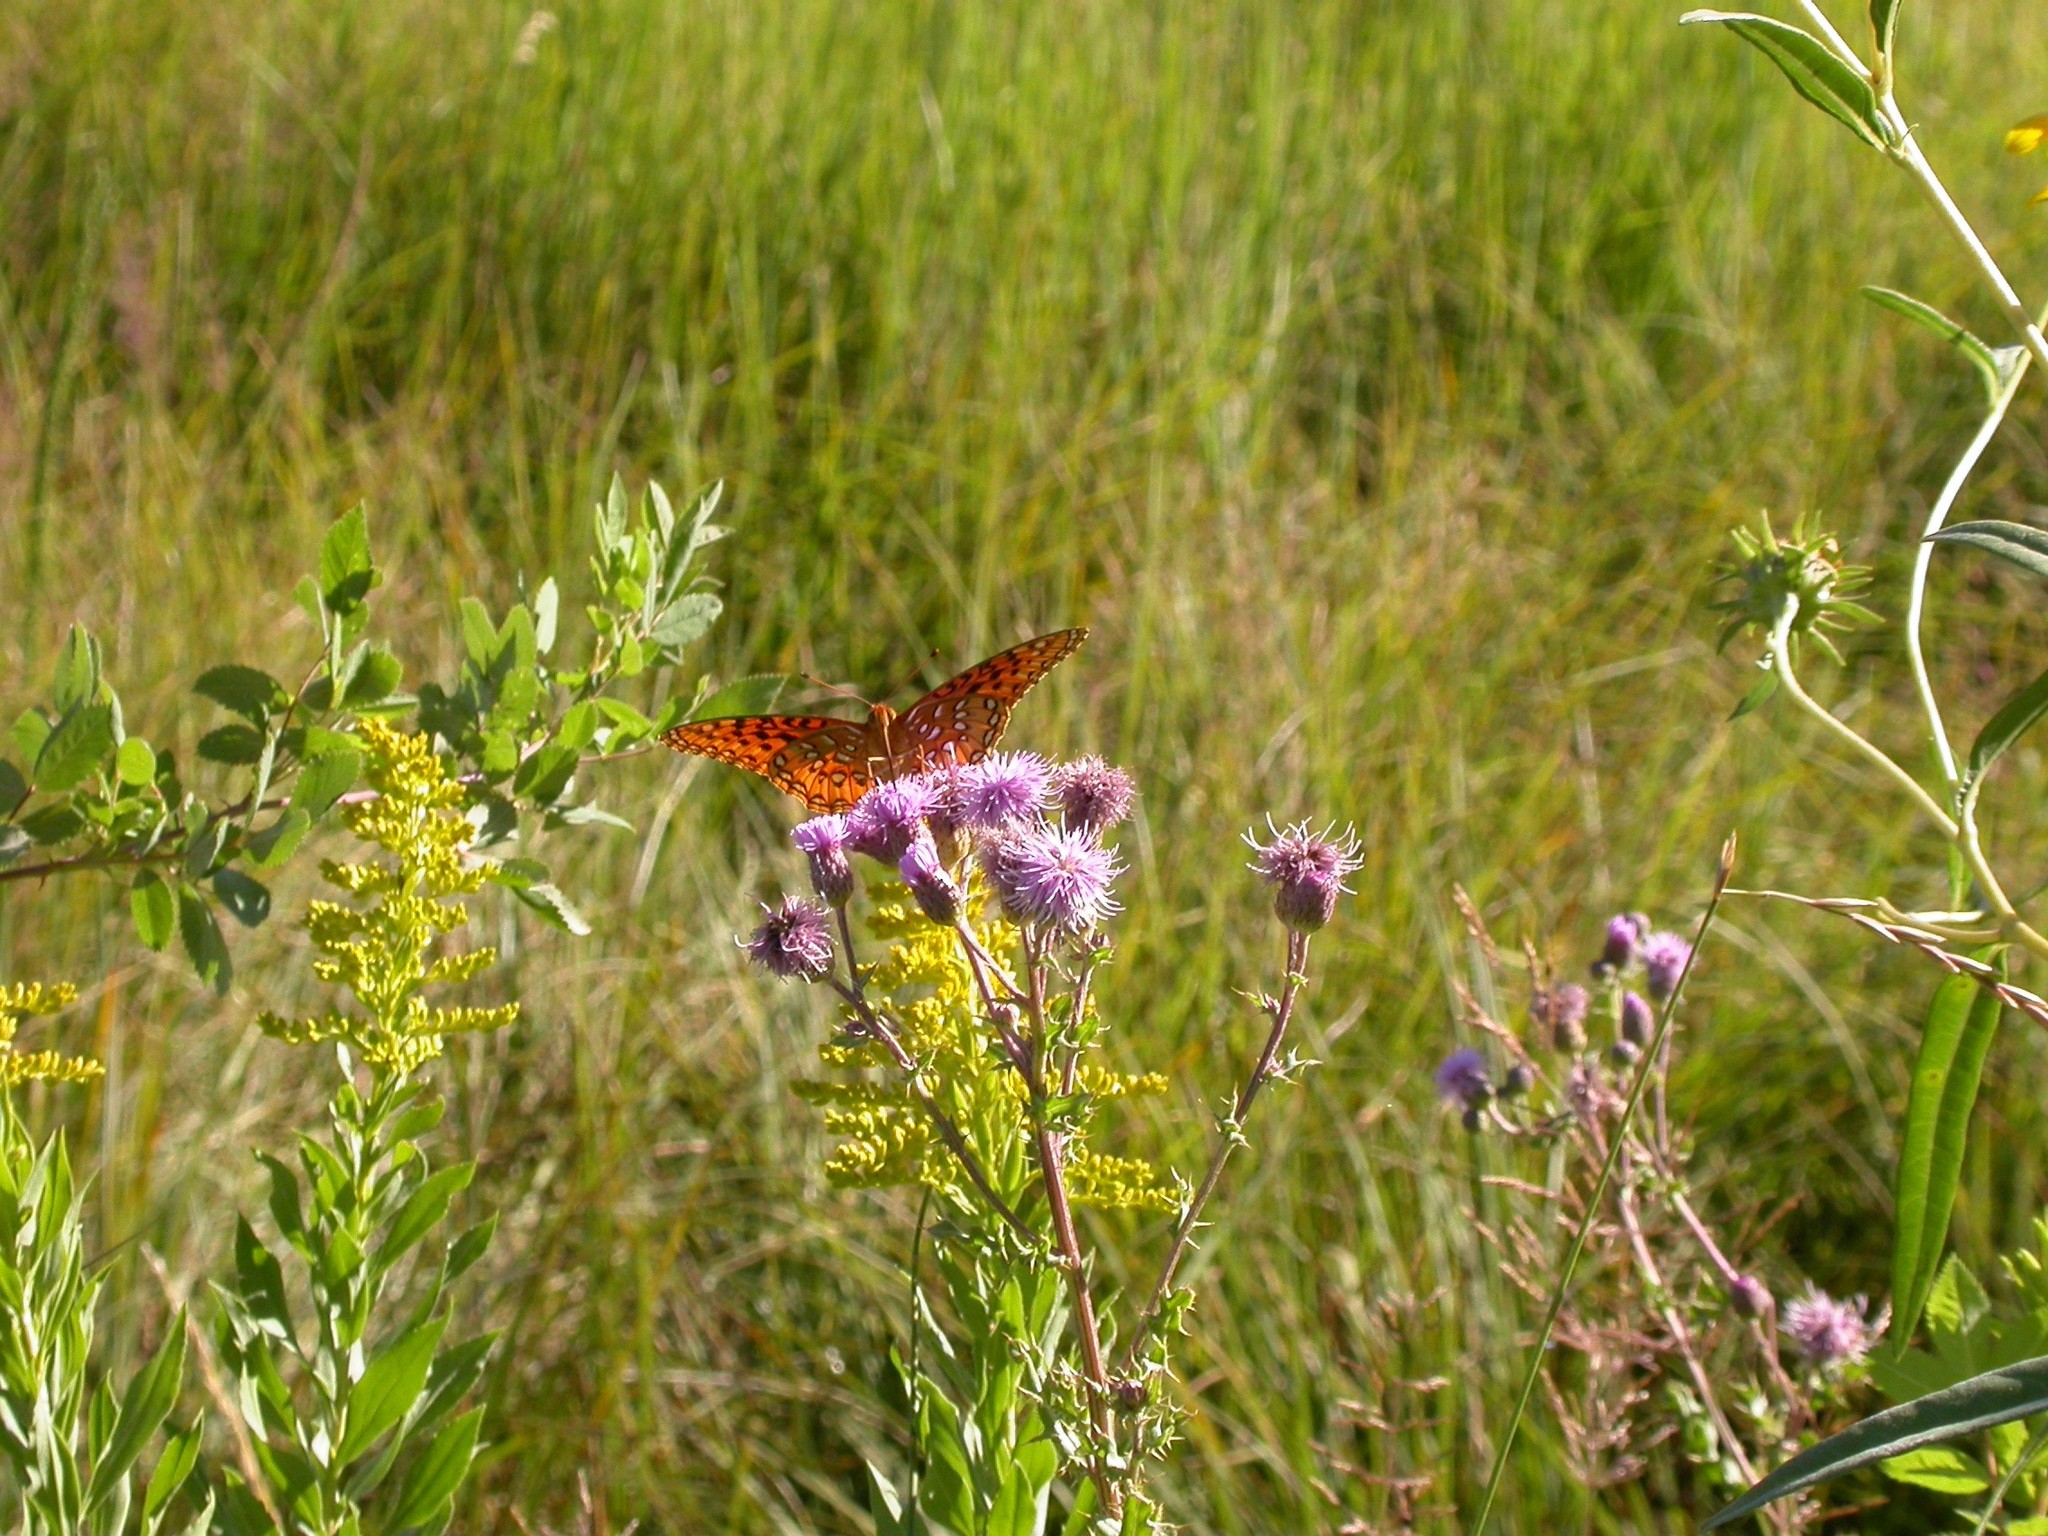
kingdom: Animalia
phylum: Arthropoda
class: Insecta
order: Lepidoptera
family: Nymphalidae
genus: Speyeria
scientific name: Speyeria nokomis
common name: Nokomis fritillary
